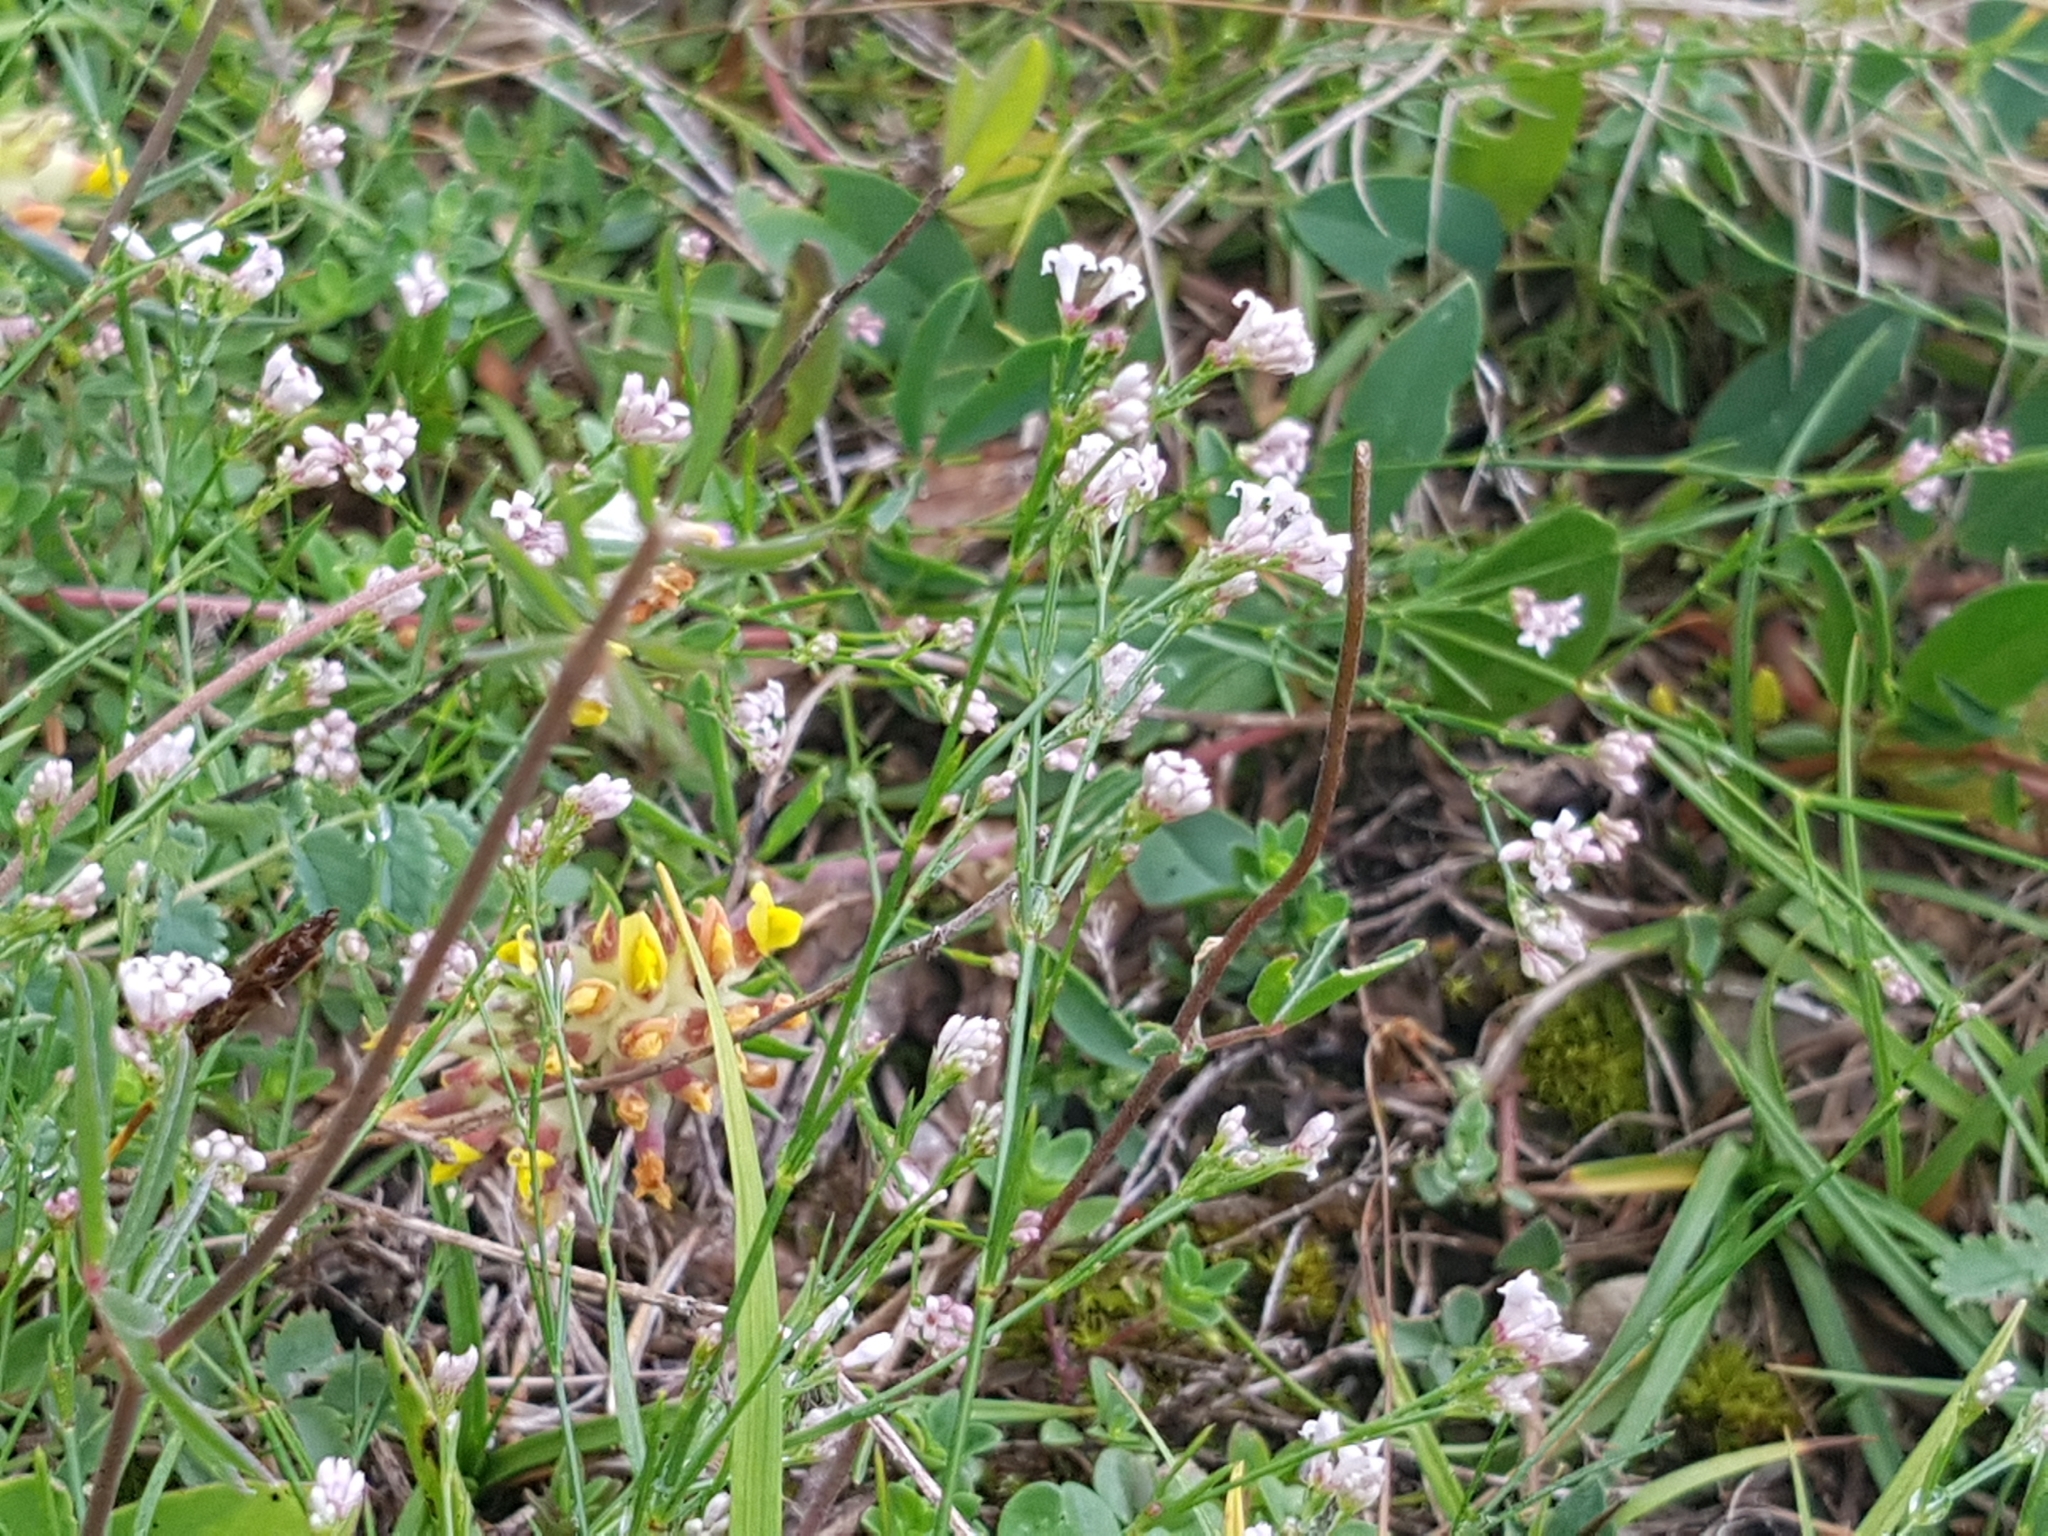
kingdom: Plantae
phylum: Tracheophyta
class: Magnoliopsida
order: Gentianales
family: Rubiaceae
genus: Cynanchica
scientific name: Cynanchica pyrenaica
